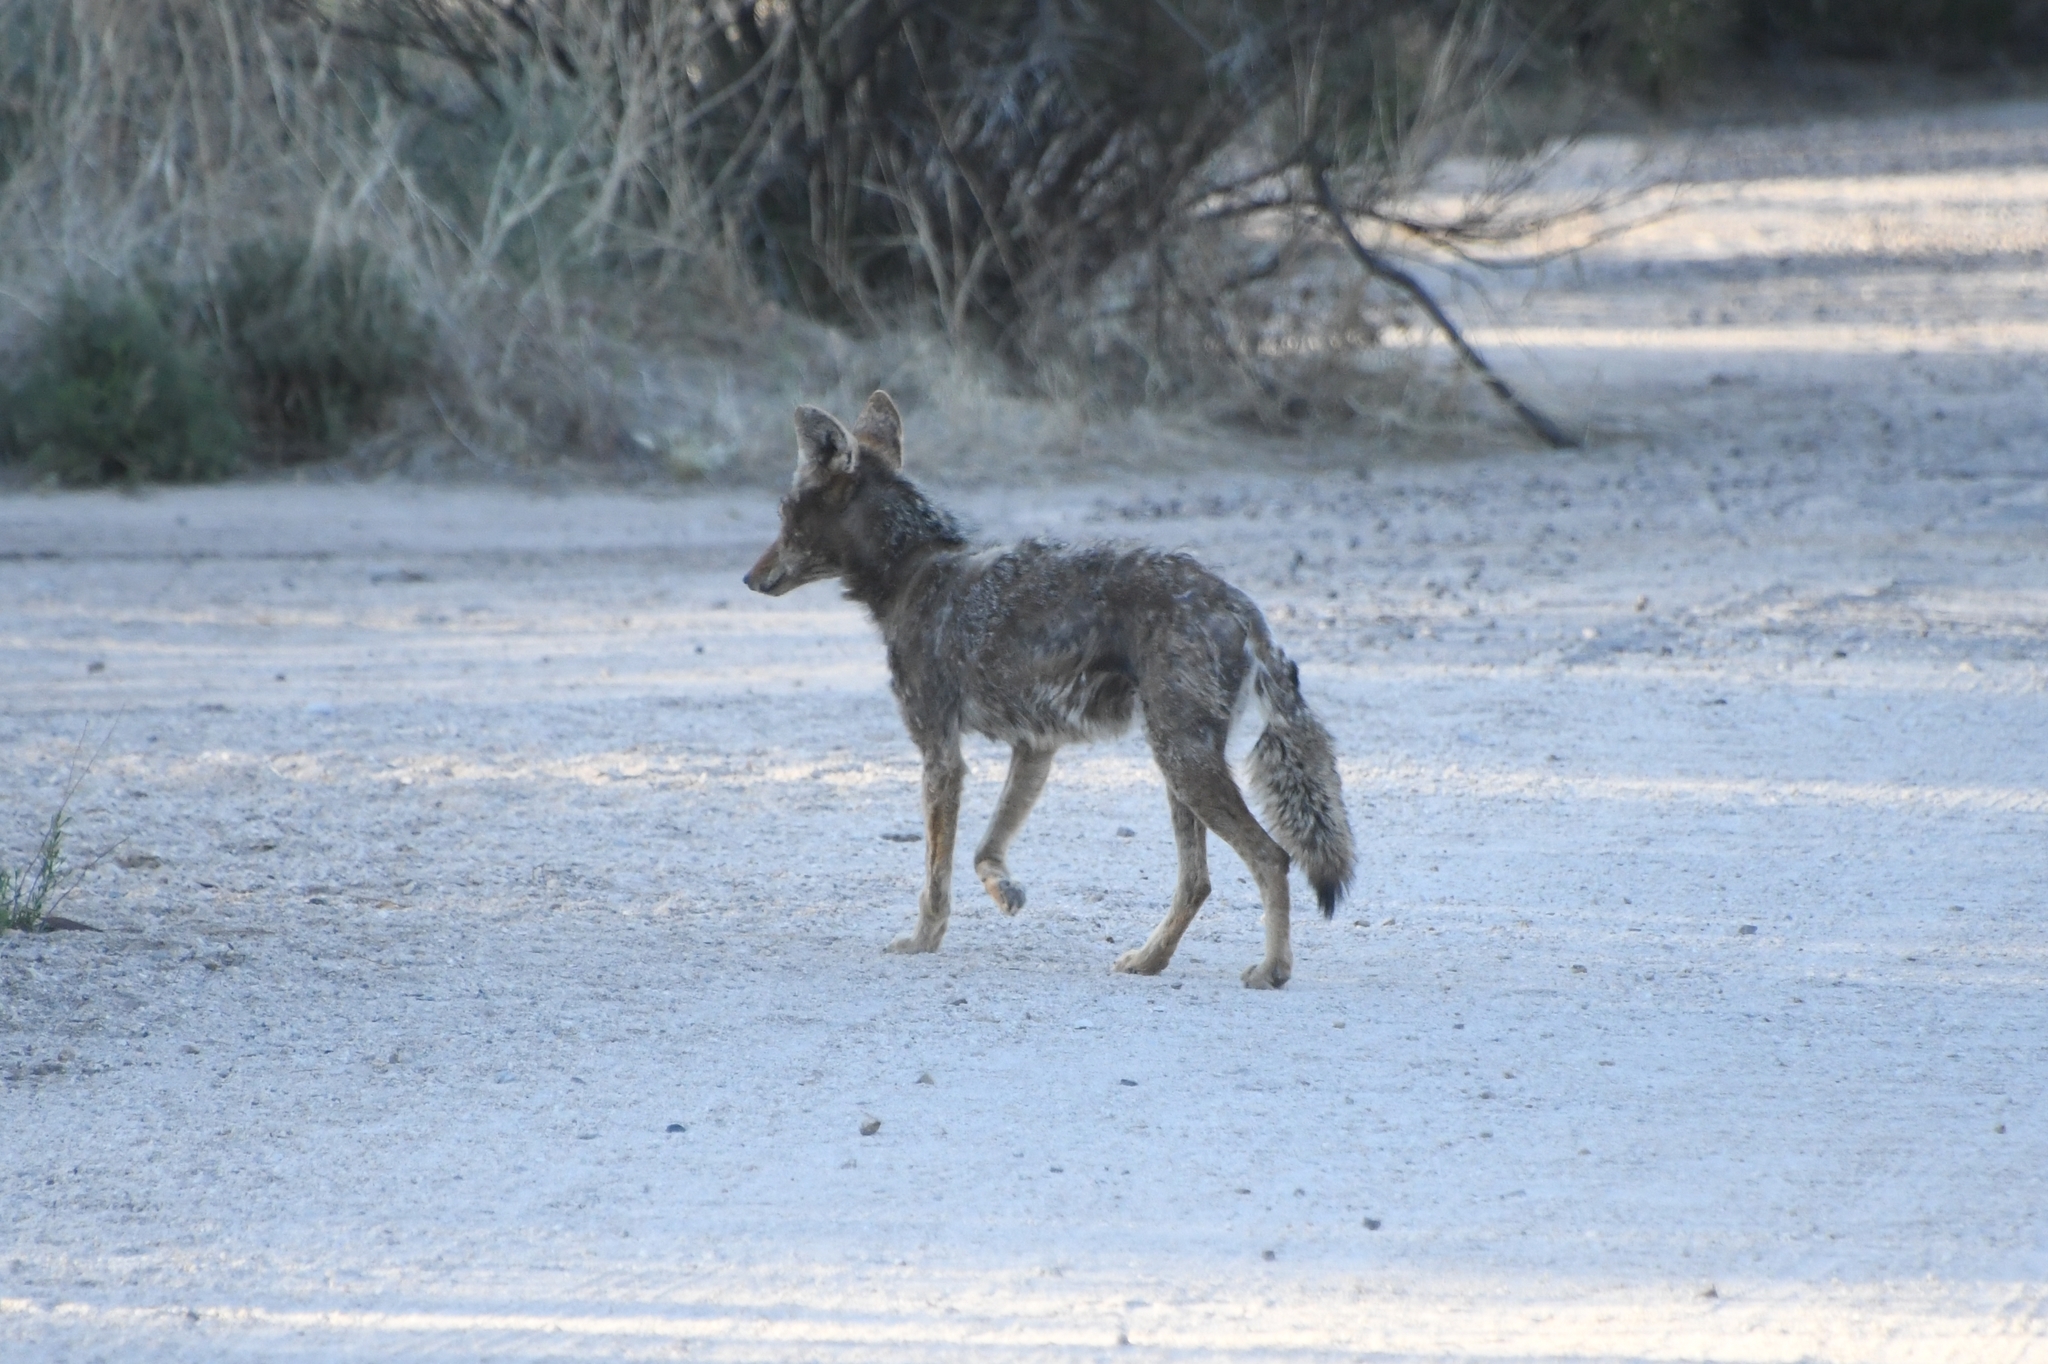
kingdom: Animalia
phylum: Chordata
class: Mammalia
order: Carnivora
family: Canidae
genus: Canis
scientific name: Canis latrans
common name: Coyote
